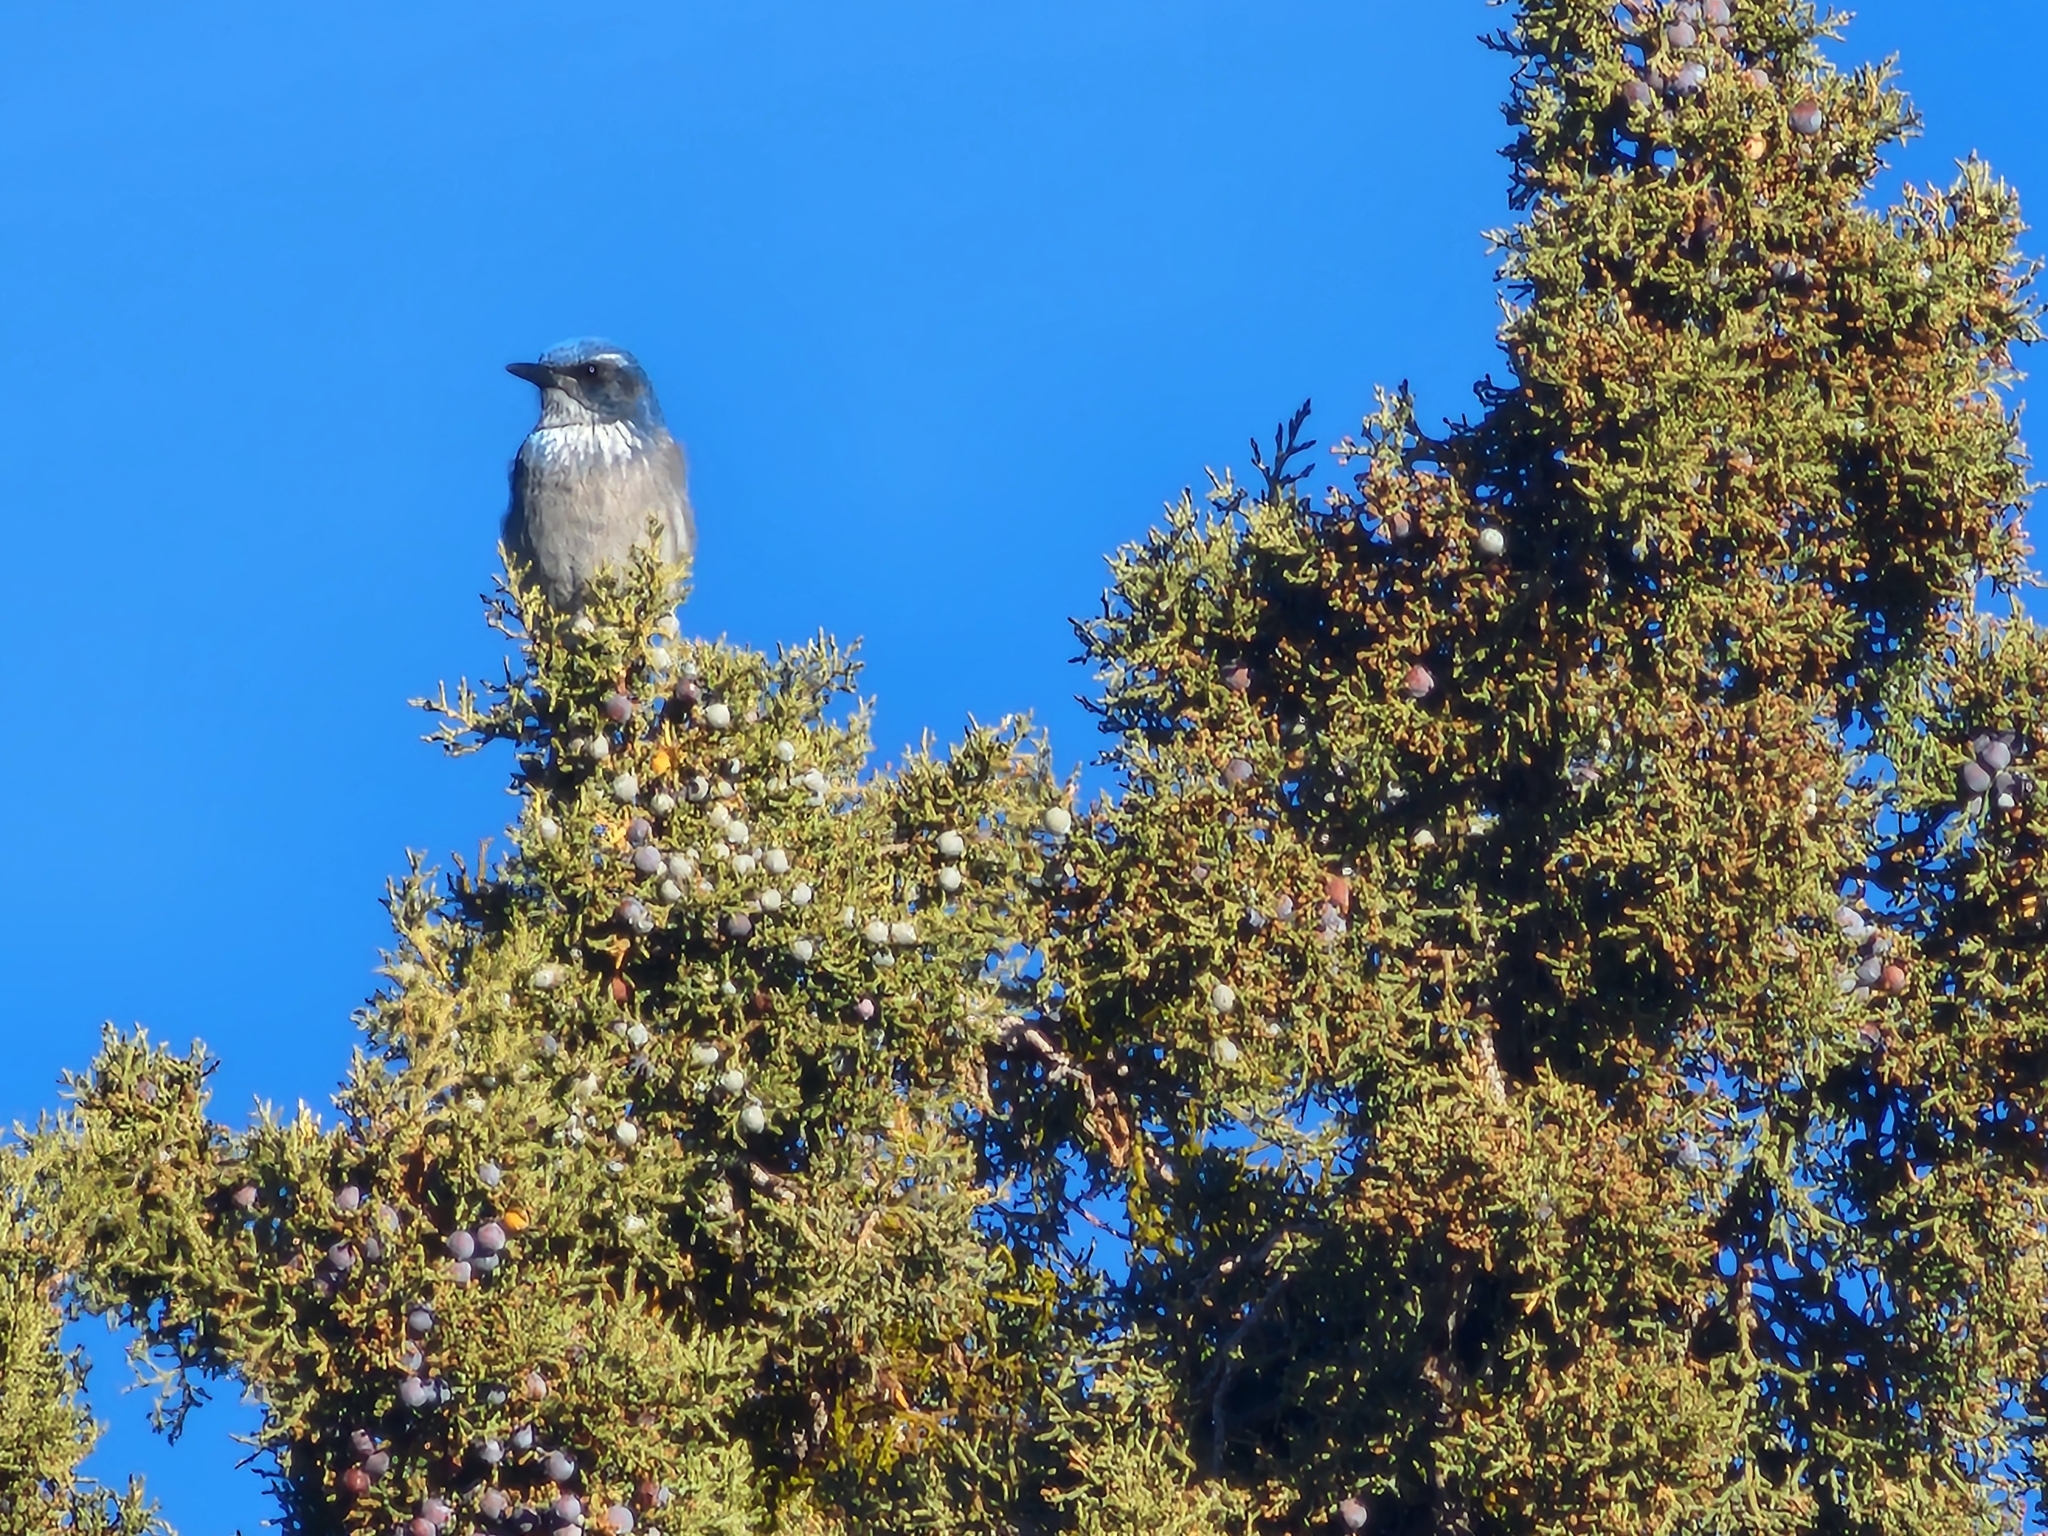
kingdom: Animalia
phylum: Chordata
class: Aves
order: Passeriformes
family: Corvidae
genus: Aphelocoma
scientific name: Aphelocoma woodhouseii
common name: Woodhouse's scrub-jay
